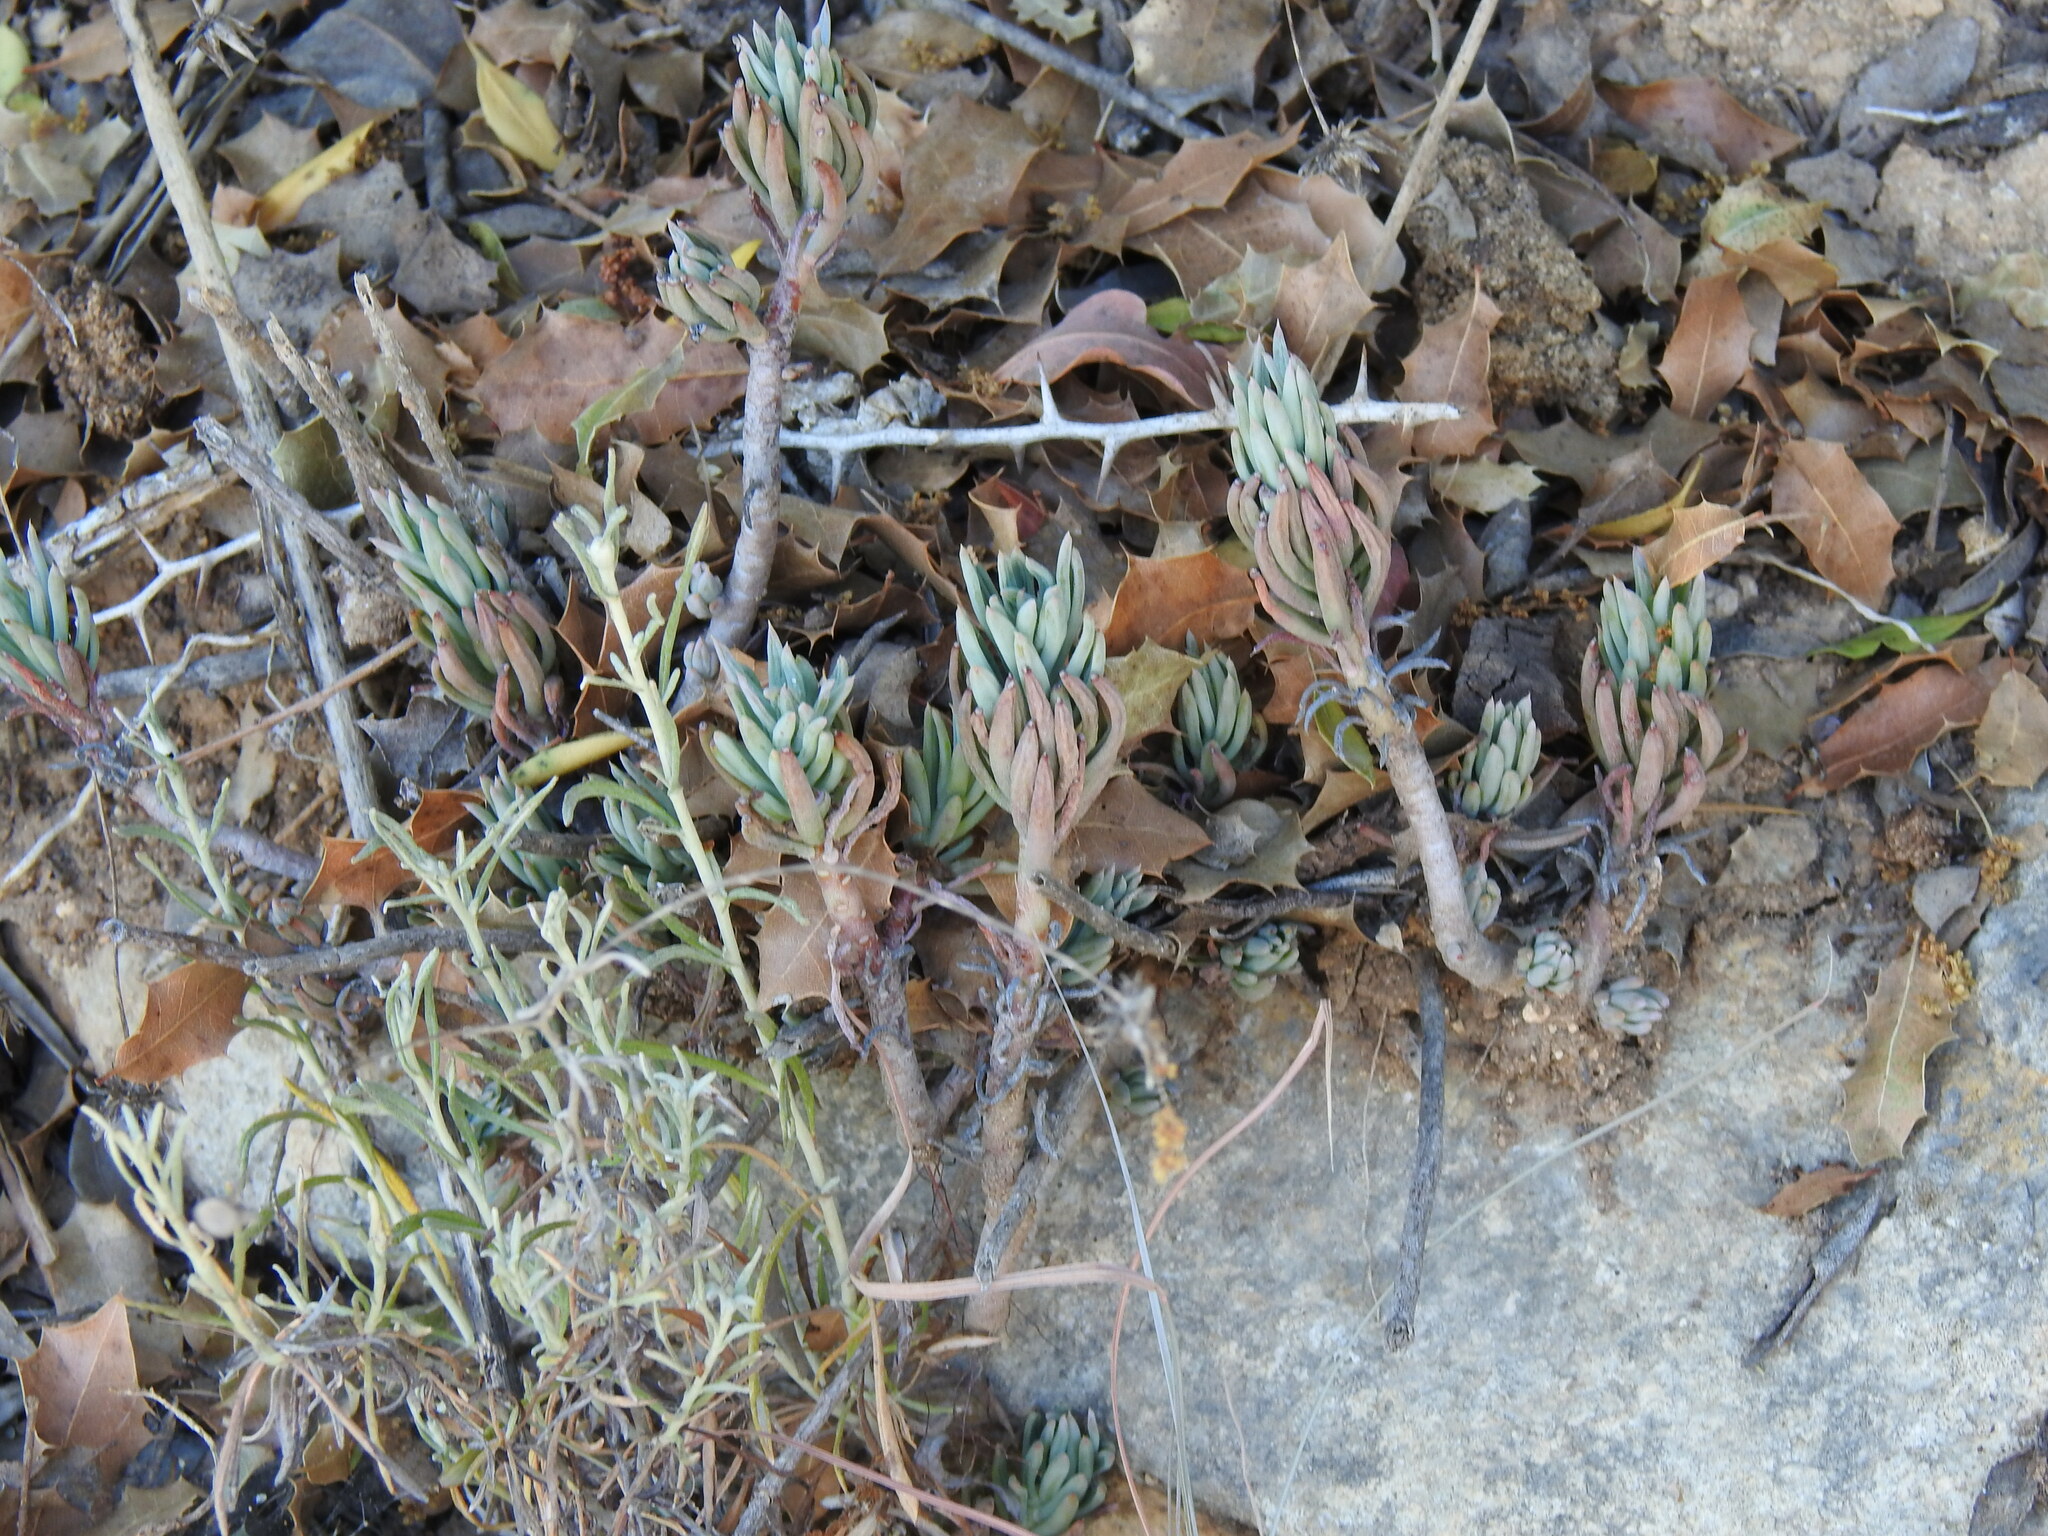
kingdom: Plantae
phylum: Tracheophyta
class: Magnoliopsida
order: Saxifragales
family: Crassulaceae
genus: Petrosedum
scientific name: Petrosedum sediforme
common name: Pale stonecrop
